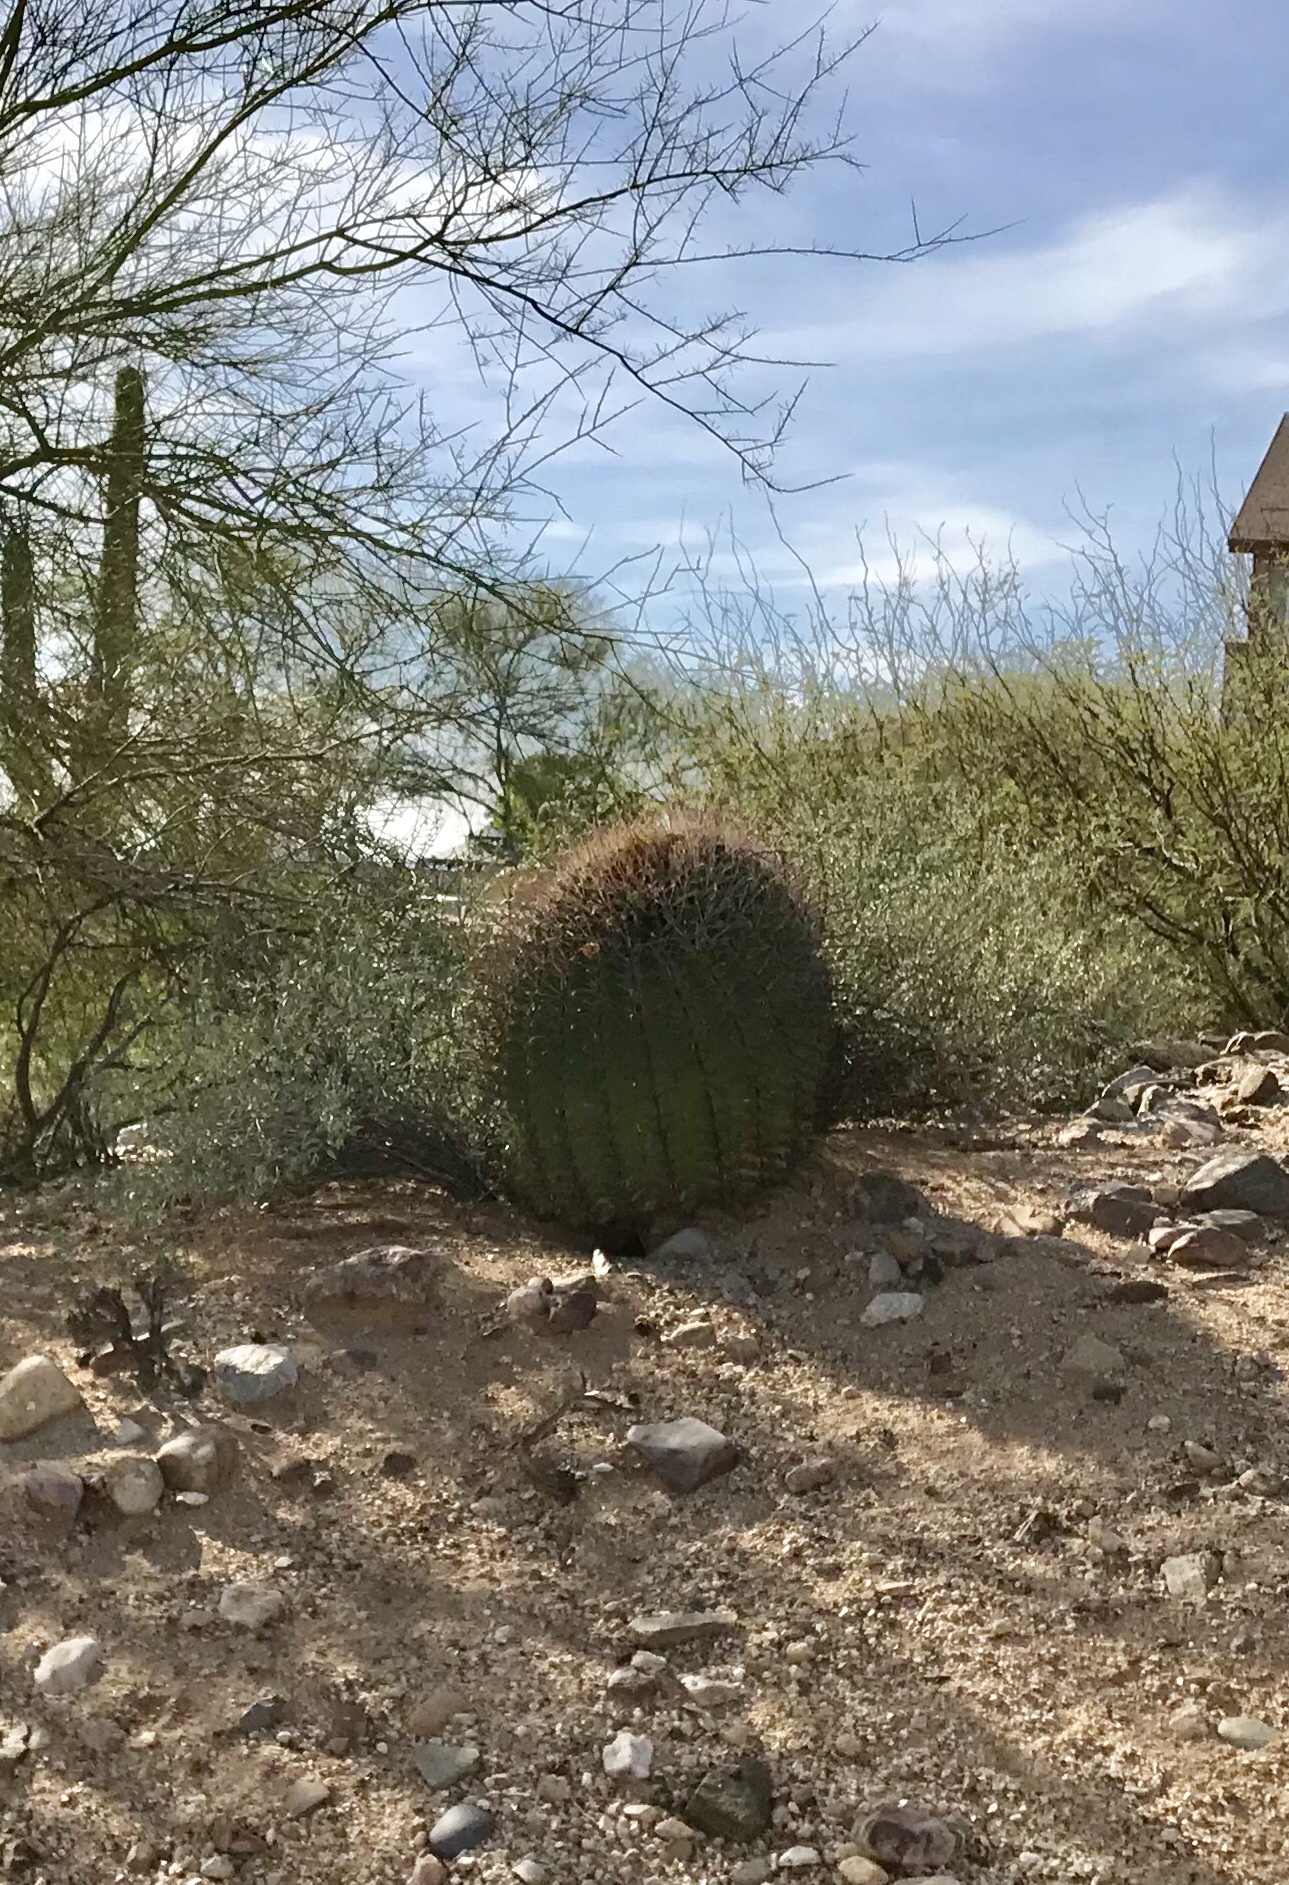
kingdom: Plantae
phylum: Tracheophyta
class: Magnoliopsida
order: Caryophyllales
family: Cactaceae
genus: Ferocactus
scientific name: Ferocactus wislizeni
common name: Candy barrel cactus
